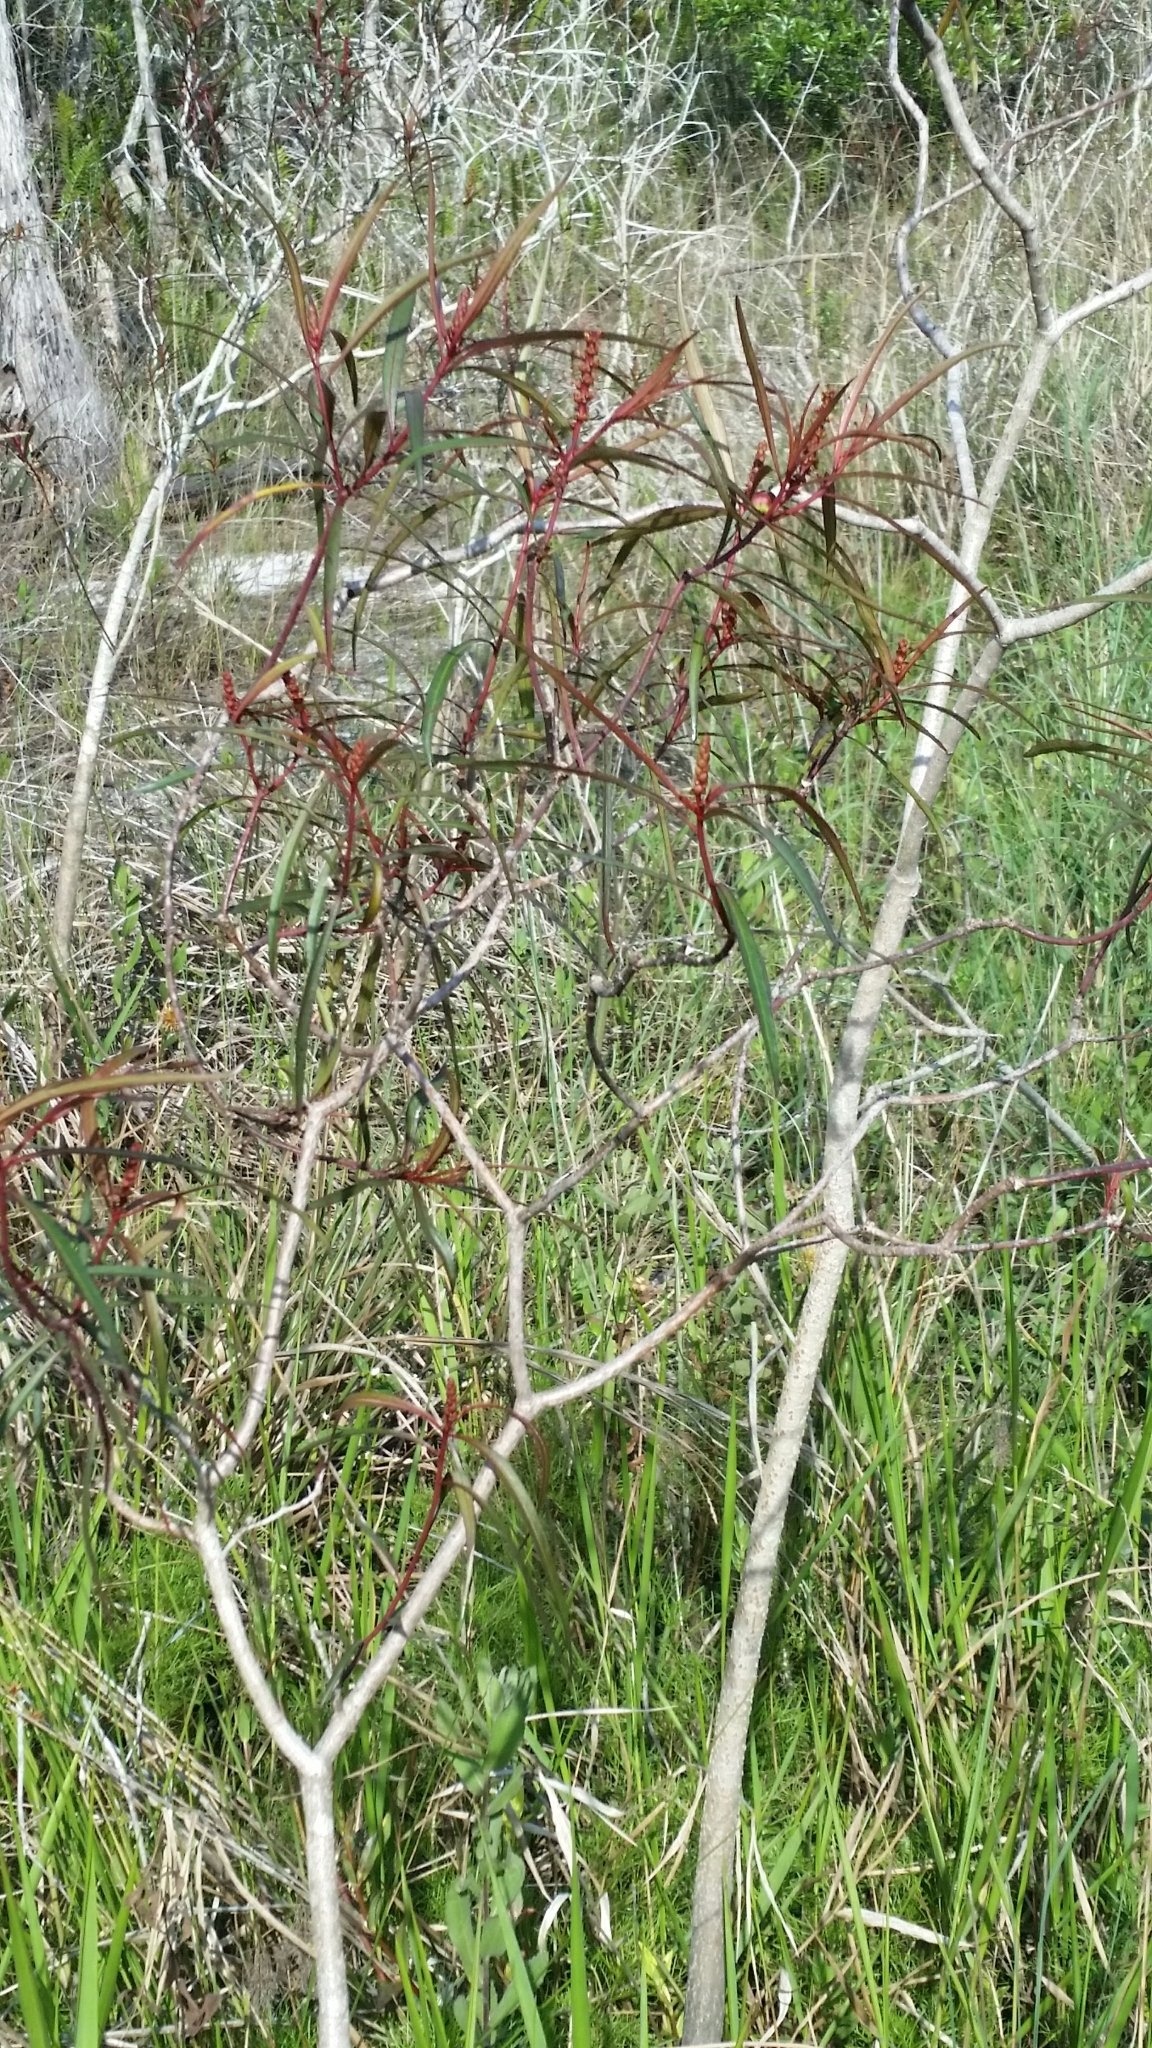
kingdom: Plantae
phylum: Tracheophyta
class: Magnoliopsida
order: Malpighiales
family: Euphorbiaceae
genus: Stillingia
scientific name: Stillingia aquatica
